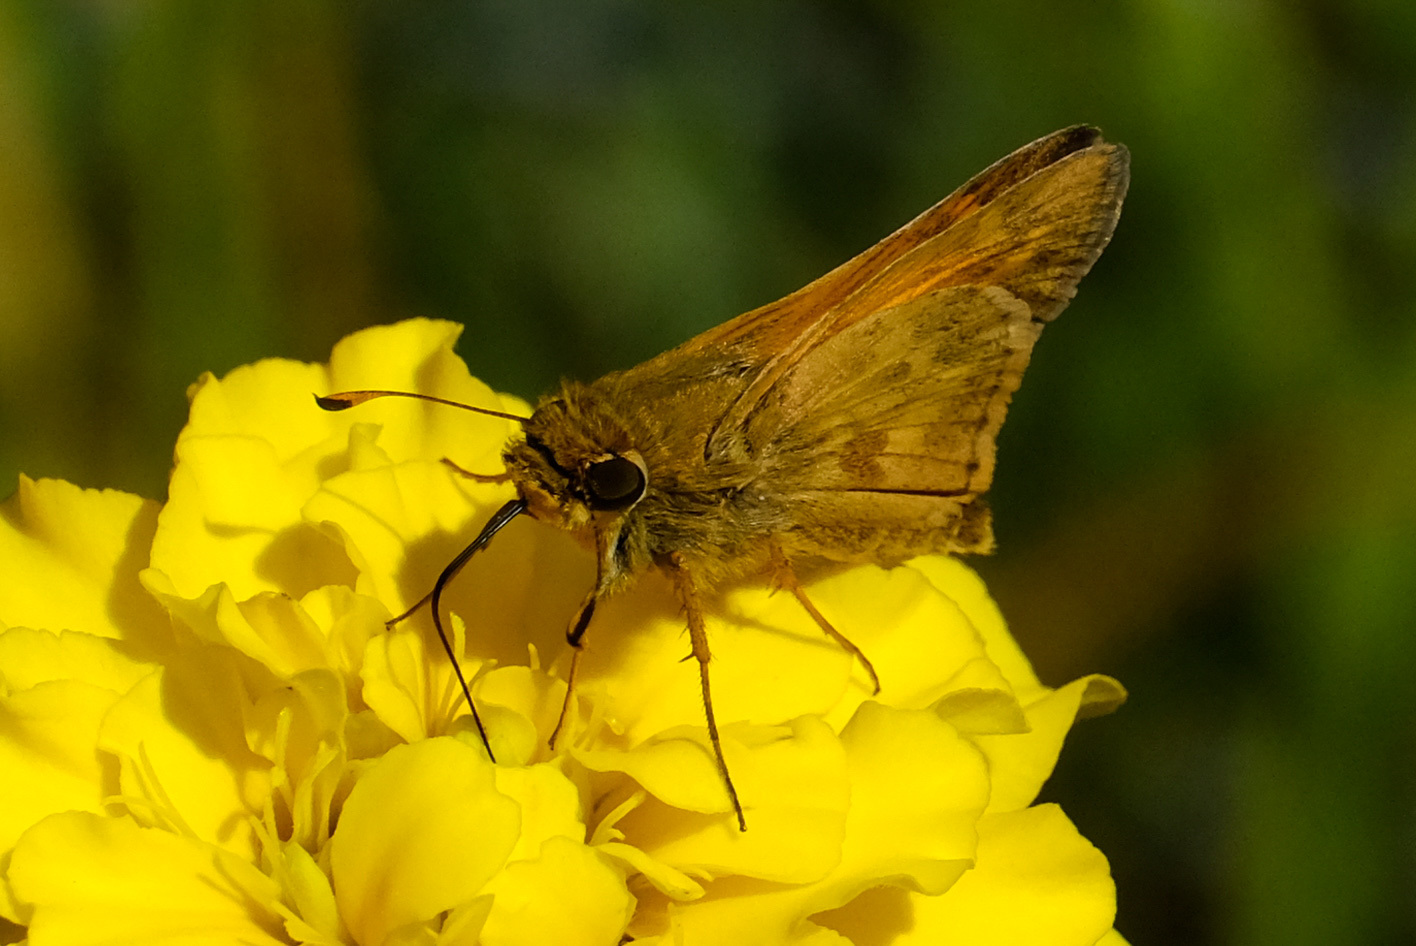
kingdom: Animalia
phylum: Arthropoda
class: Insecta
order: Lepidoptera
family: Hesperiidae
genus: Atalopedes
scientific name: Atalopedes
